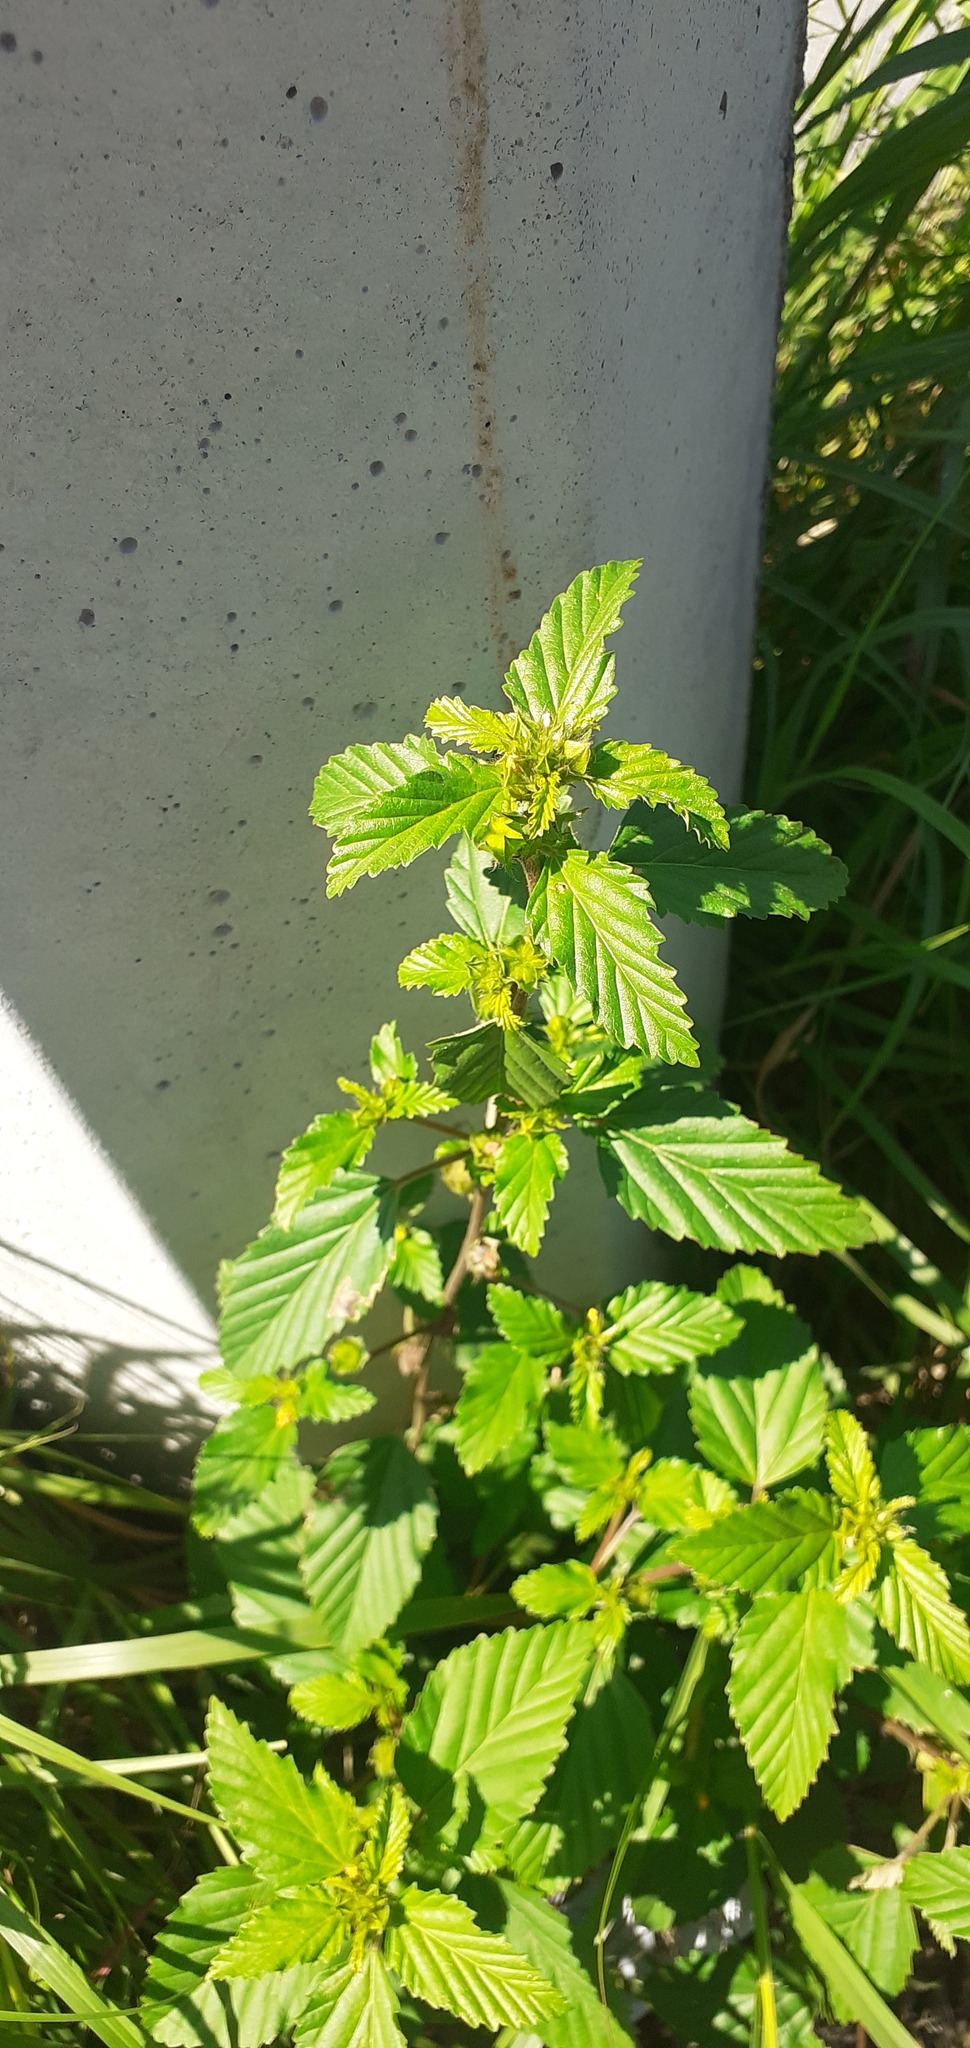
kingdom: Plantae
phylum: Tracheophyta
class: Magnoliopsida
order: Malvales
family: Malvaceae
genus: Malvastrum
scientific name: Malvastrum coromandelianum
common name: Threelobe false mallow
